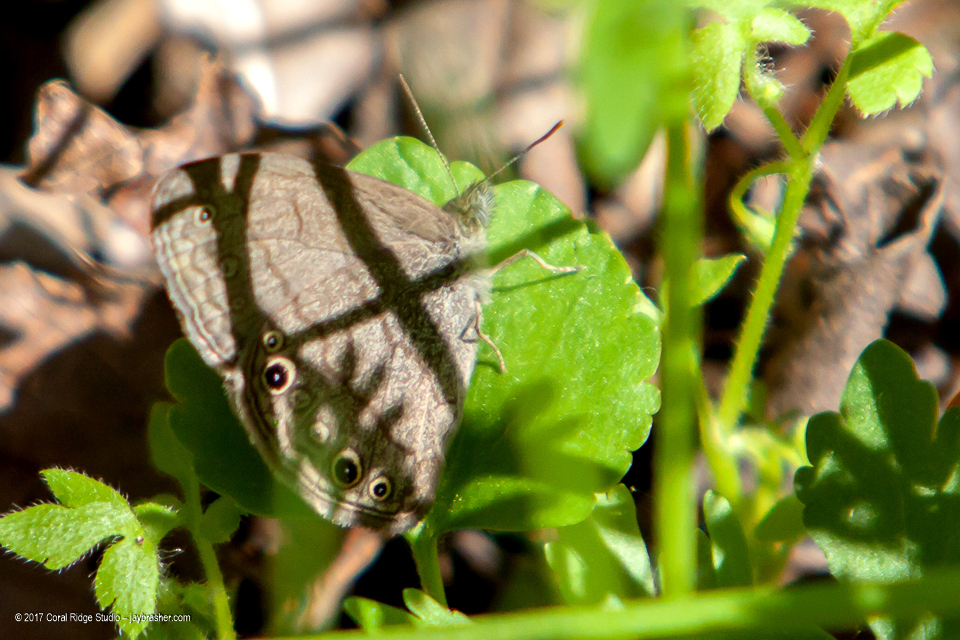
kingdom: Animalia
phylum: Arthropoda
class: Insecta
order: Lepidoptera
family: Nymphalidae
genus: Hermeuptychia
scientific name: Hermeuptychia hermes
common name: Hermes satyr
